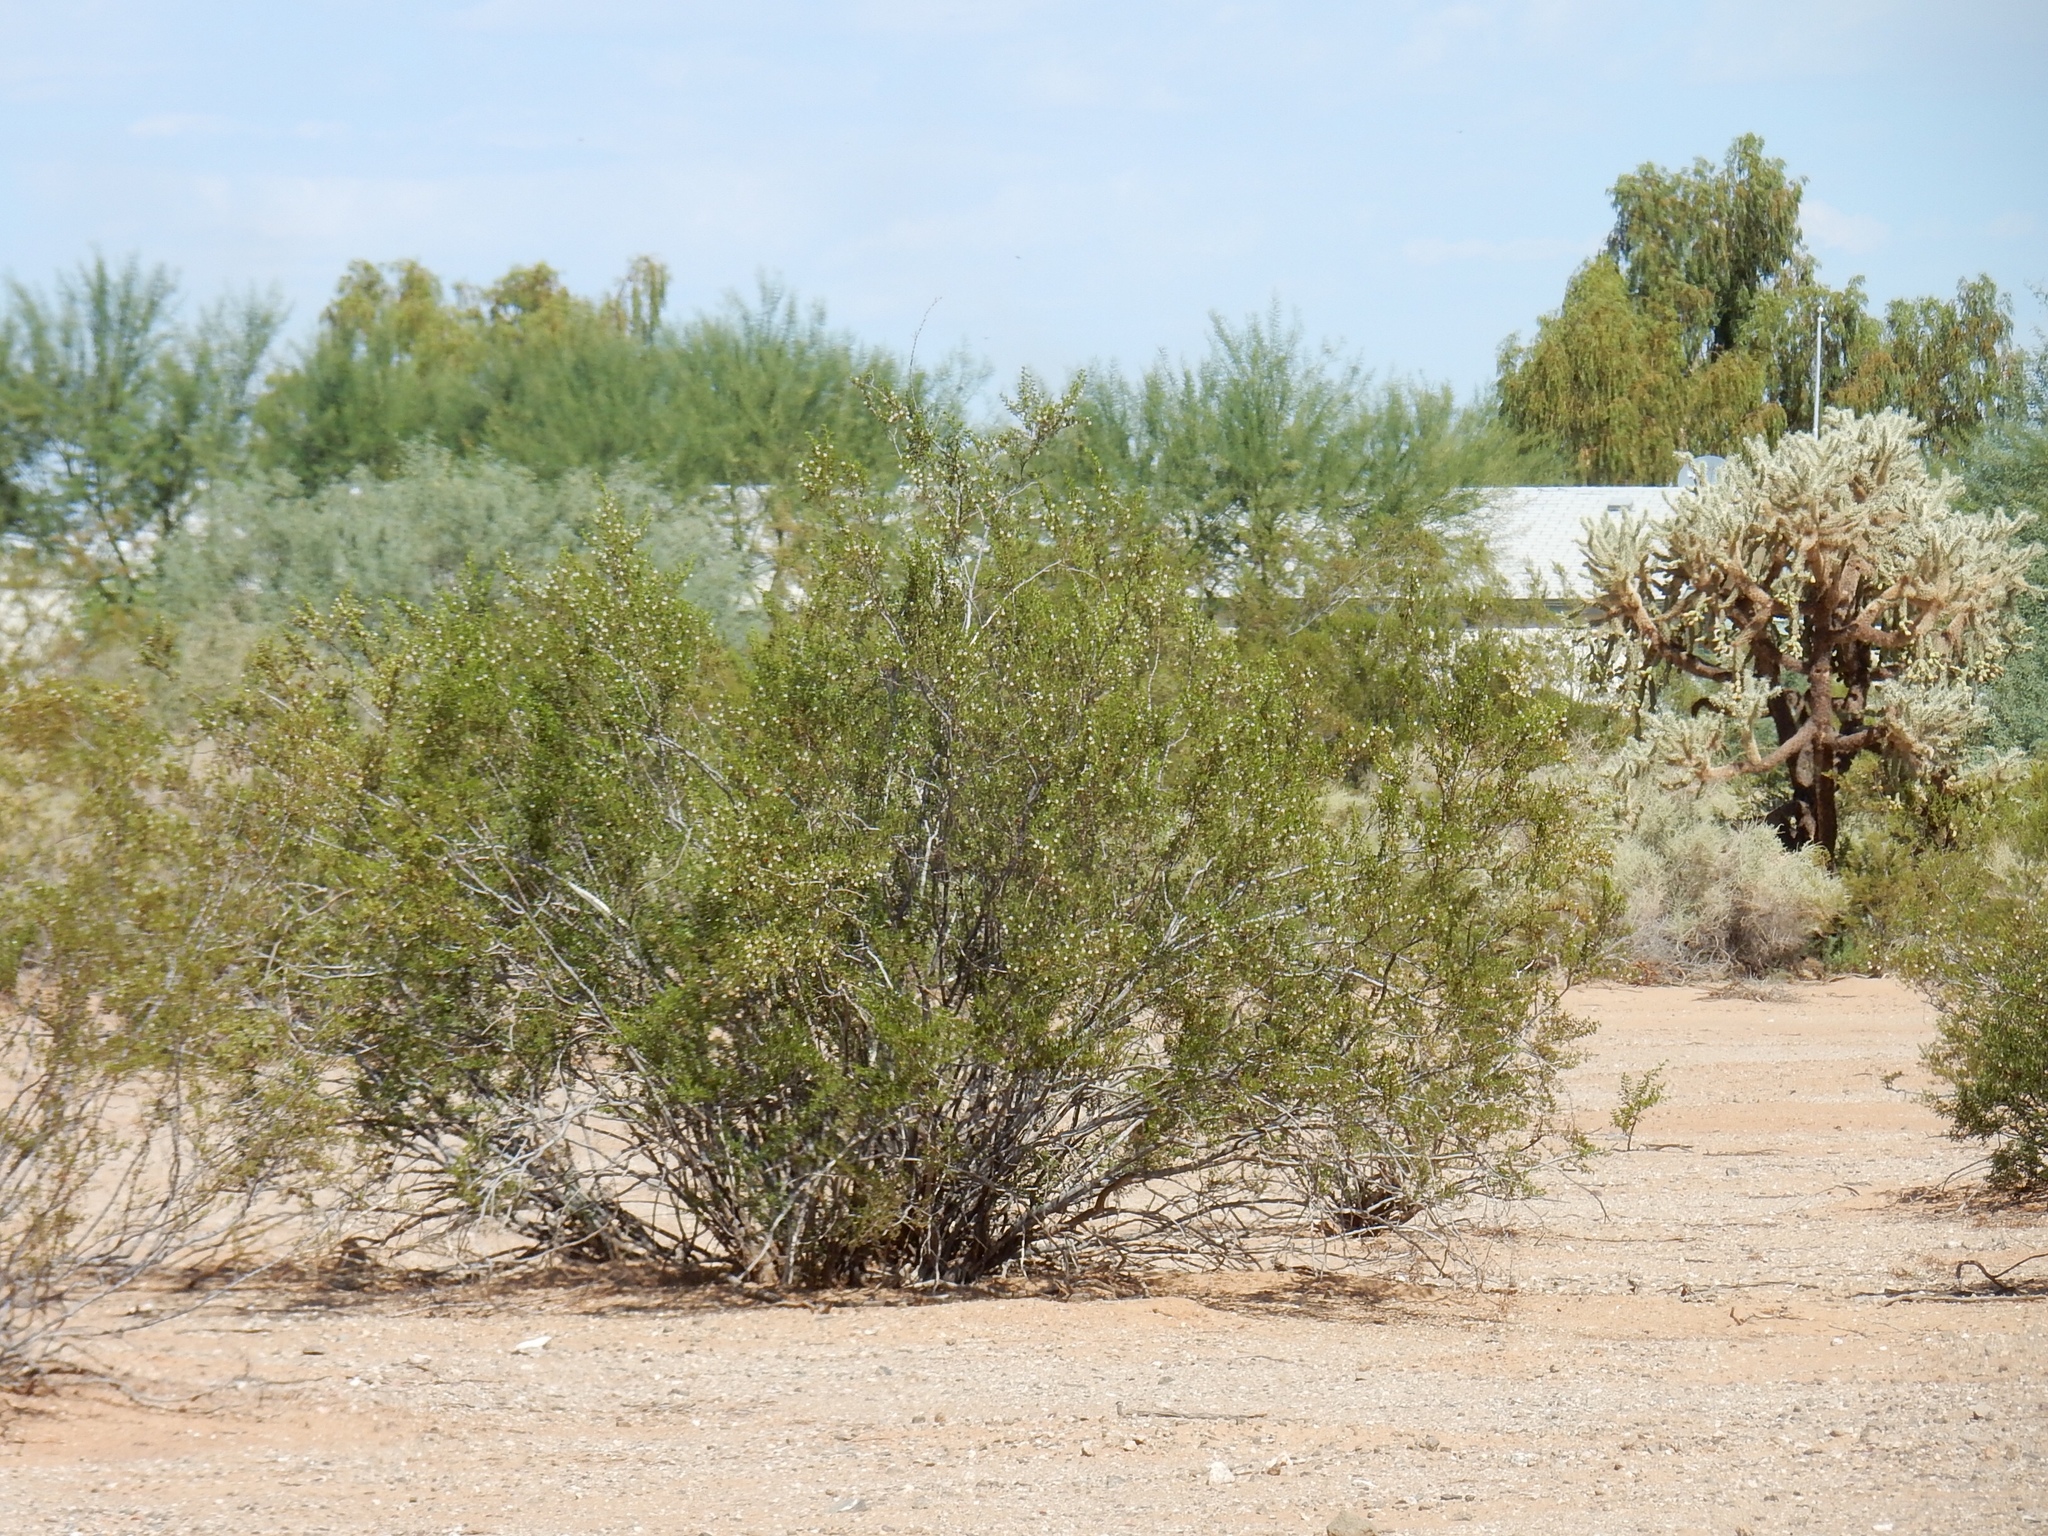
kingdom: Plantae
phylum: Tracheophyta
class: Magnoliopsida
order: Zygophyllales
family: Zygophyllaceae
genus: Larrea
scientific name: Larrea tridentata
